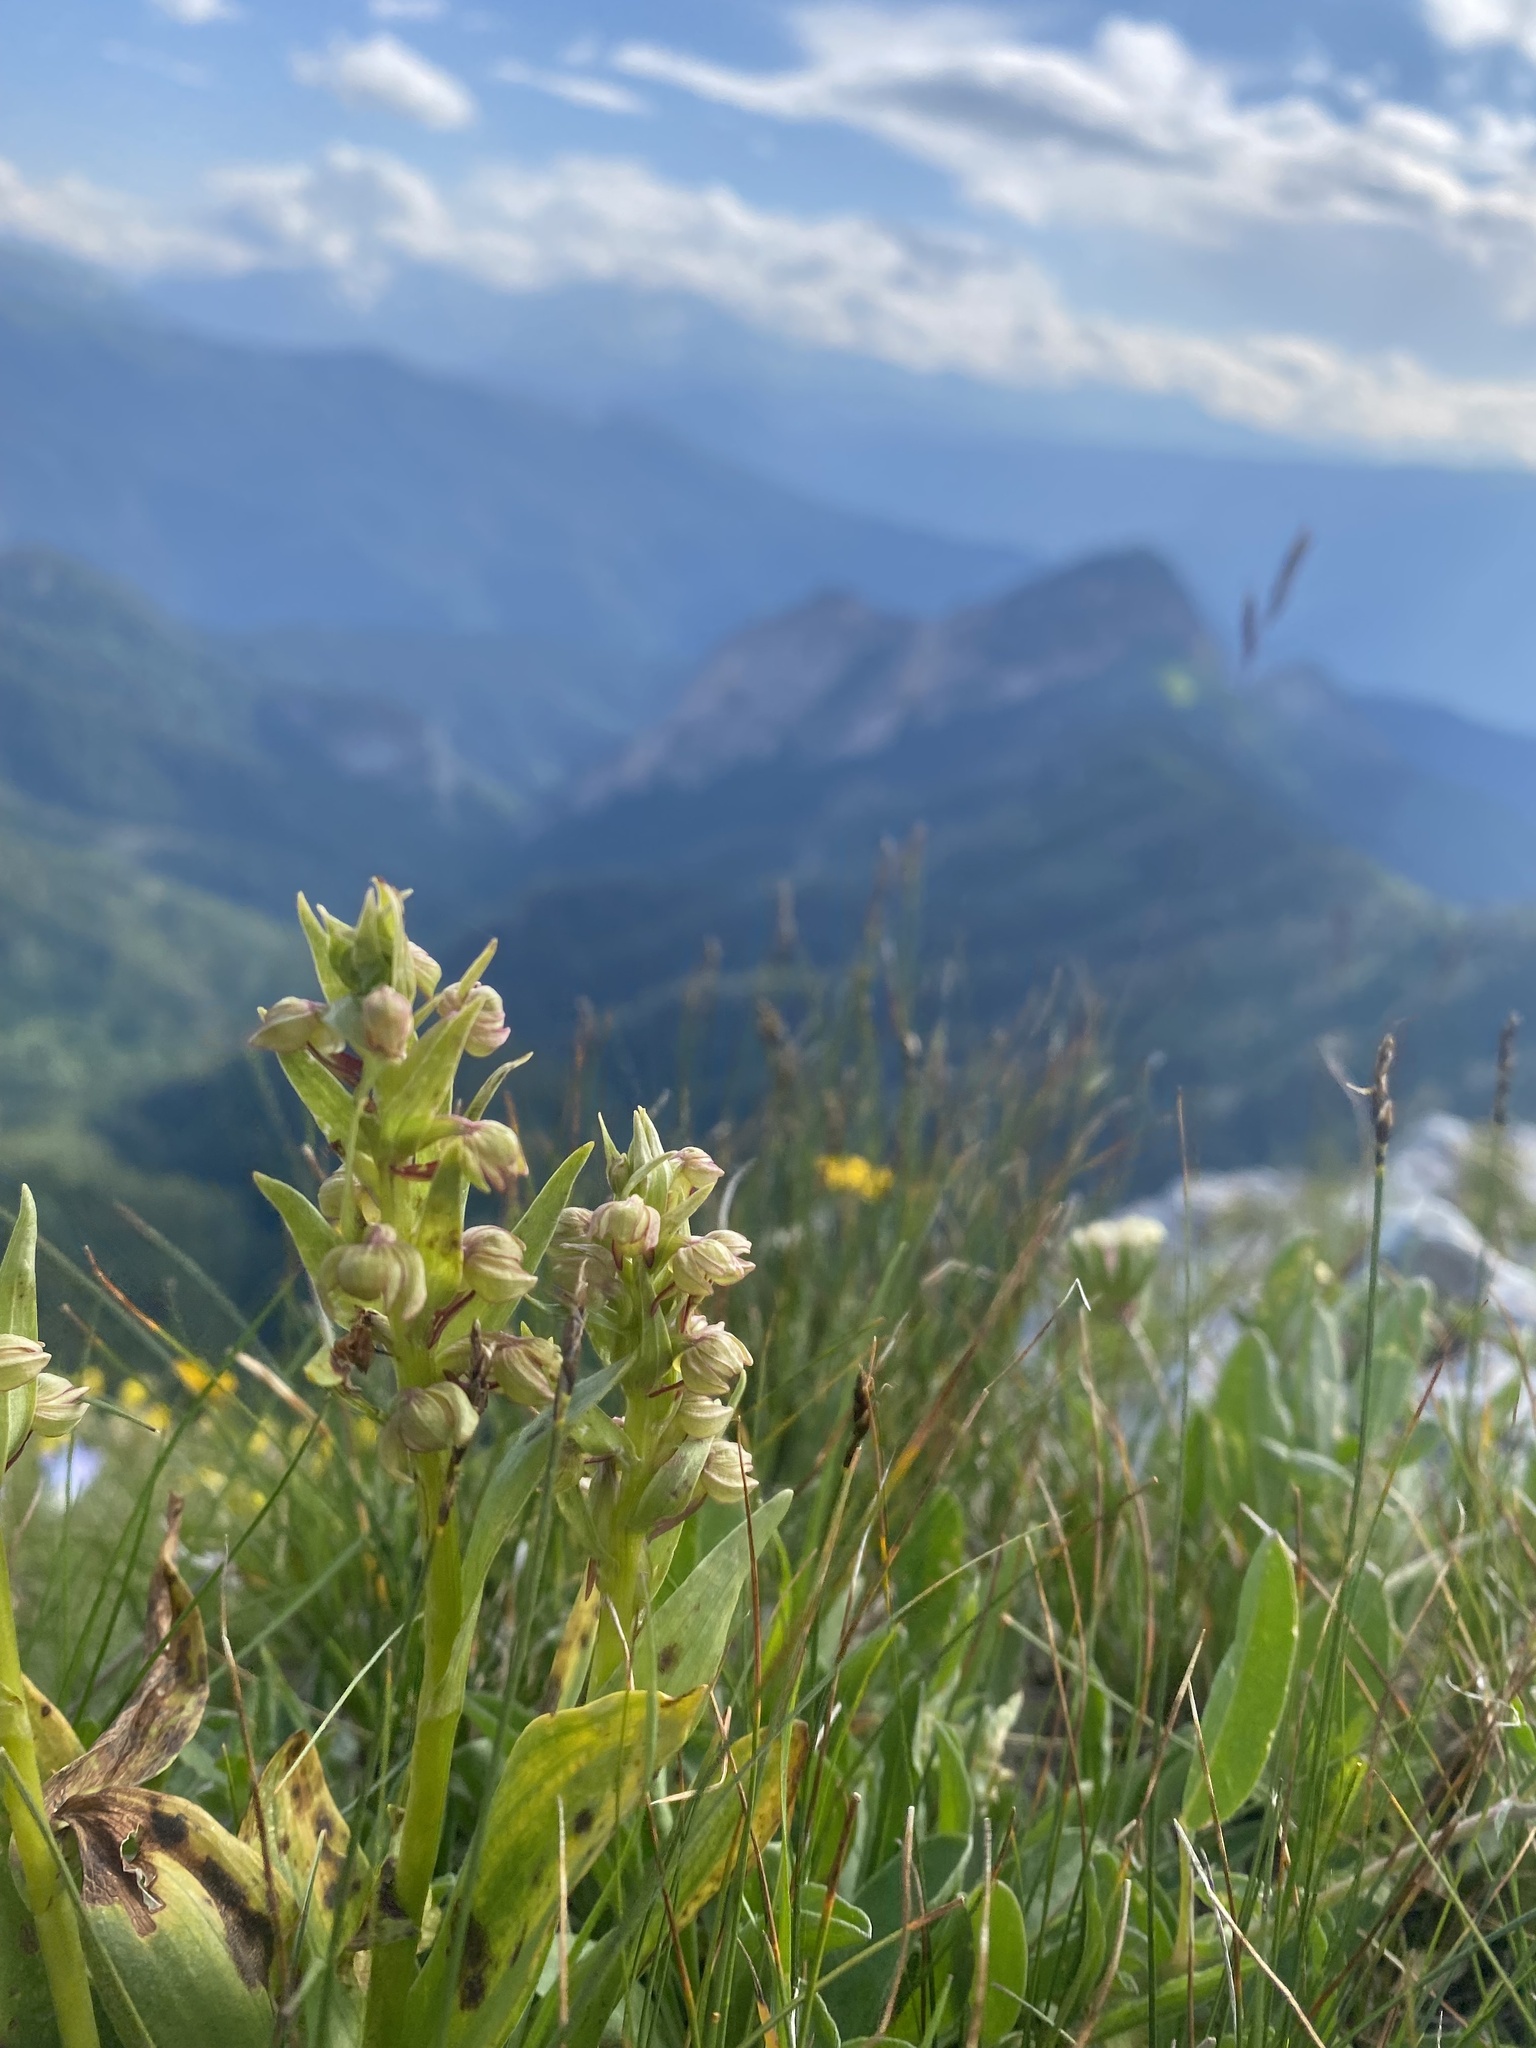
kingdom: Plantae
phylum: Tracheophyta
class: Liliopsida
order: Asparagales
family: Orchidaceae
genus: Dactylorhiza
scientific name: Dactylorhiza viridis
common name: Longbract frog orchid
